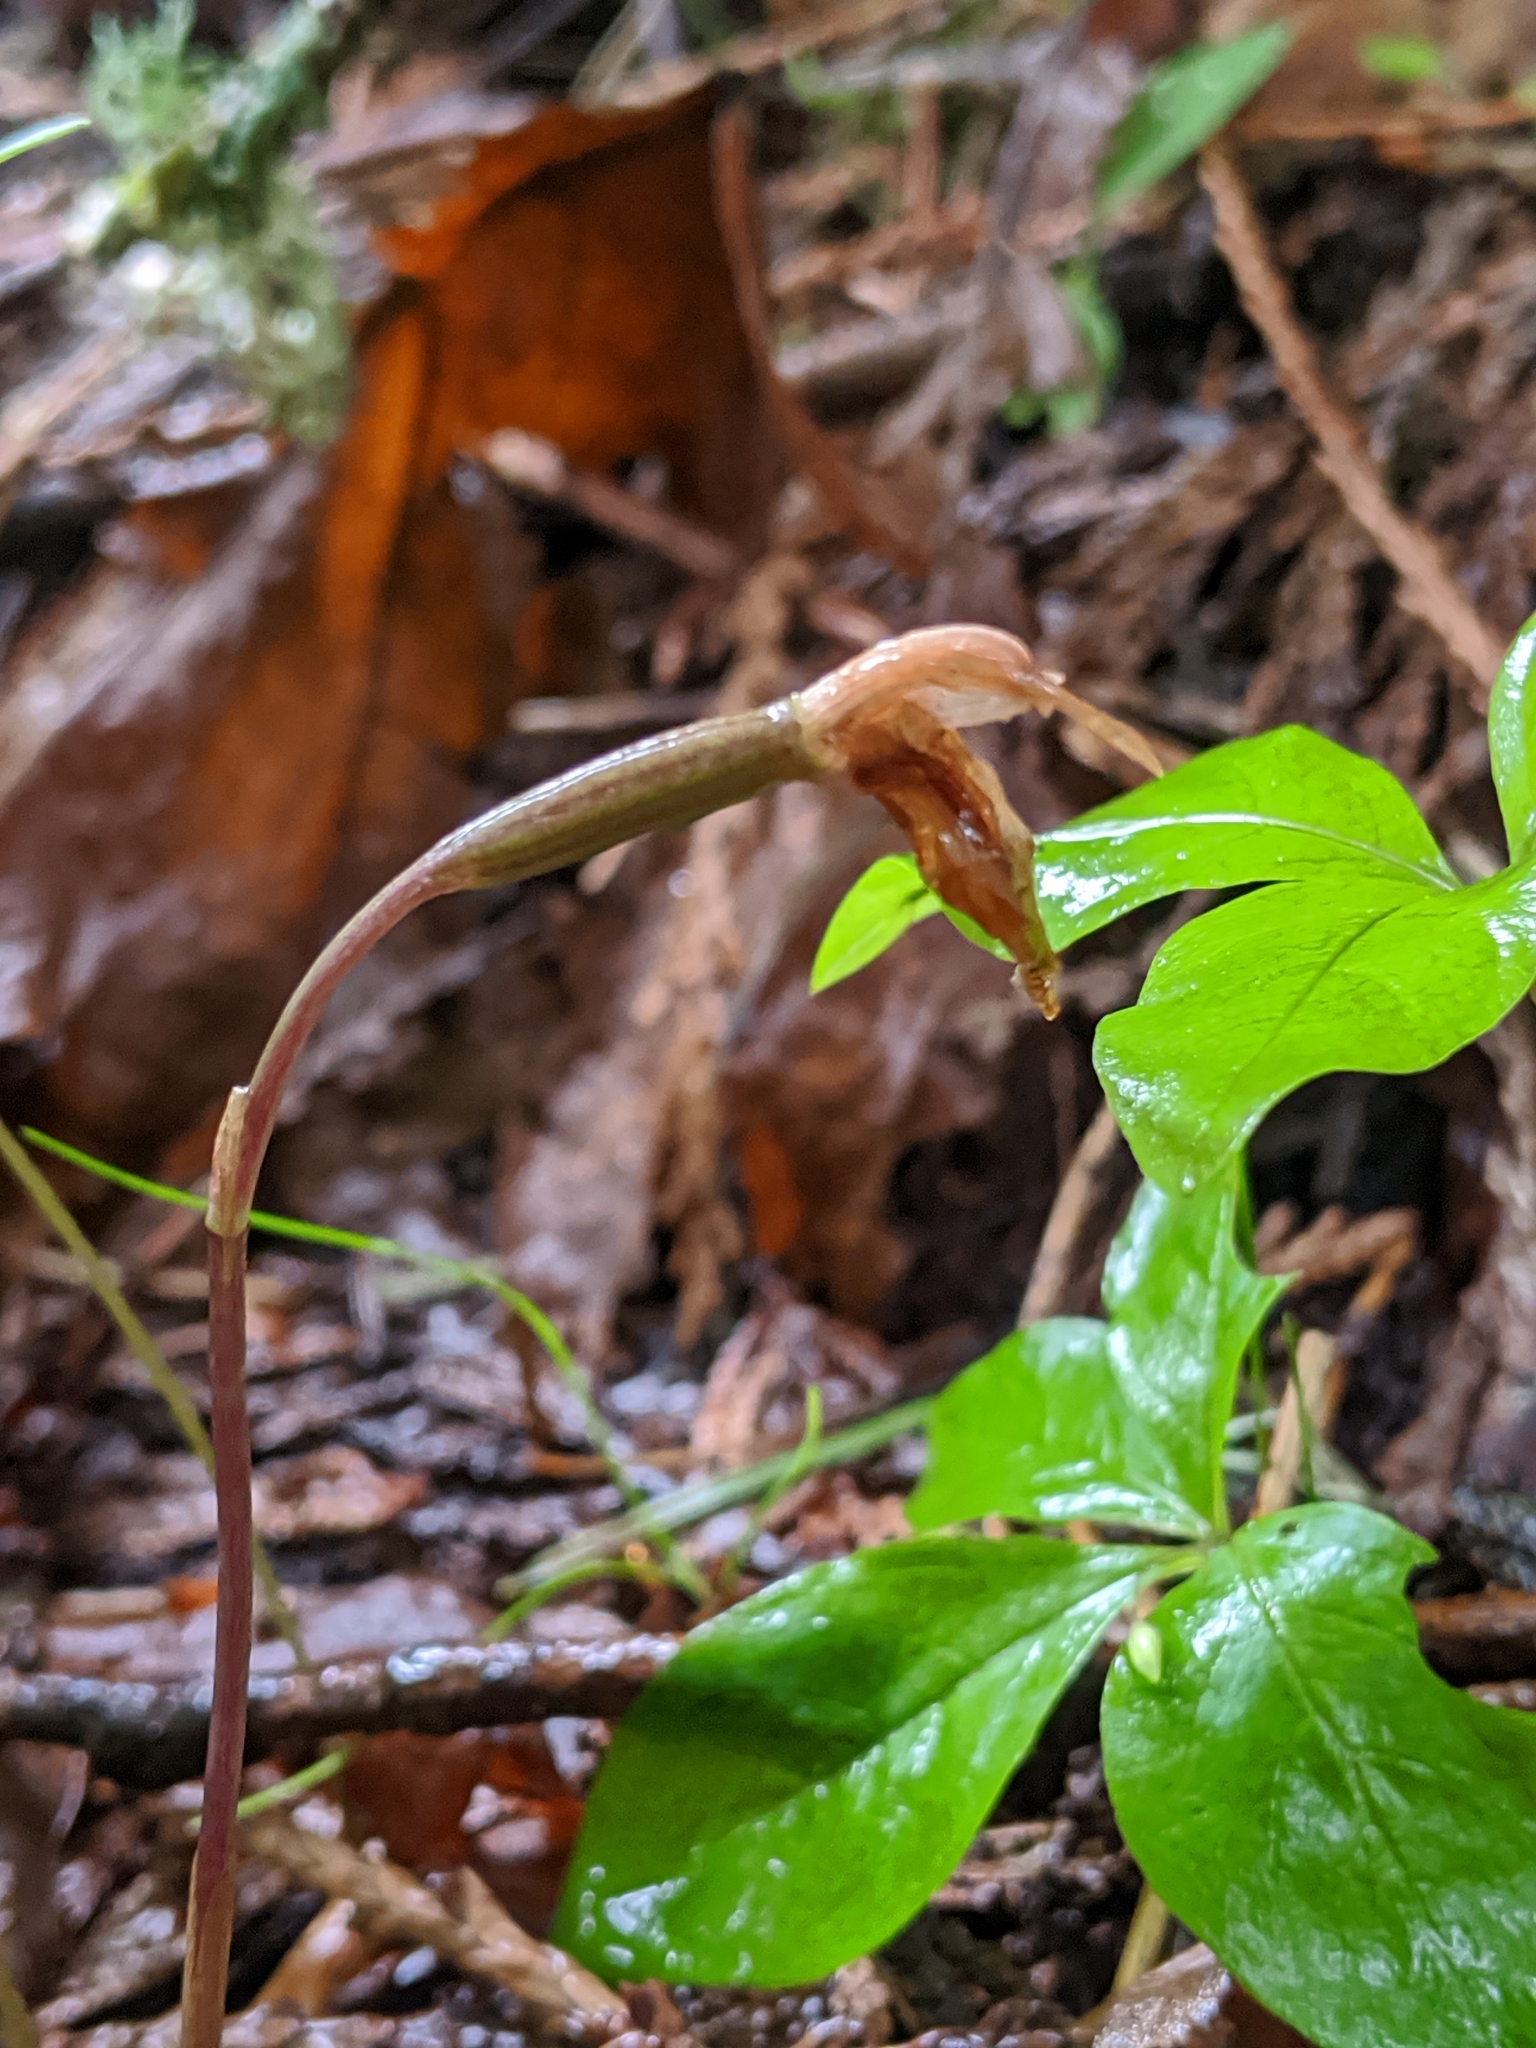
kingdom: Plantae
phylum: Tracheophyta
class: Liliopsida
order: Asparagales
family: Orchidaceae
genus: Calypso
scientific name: Calypso bulbosa
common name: Calypso
